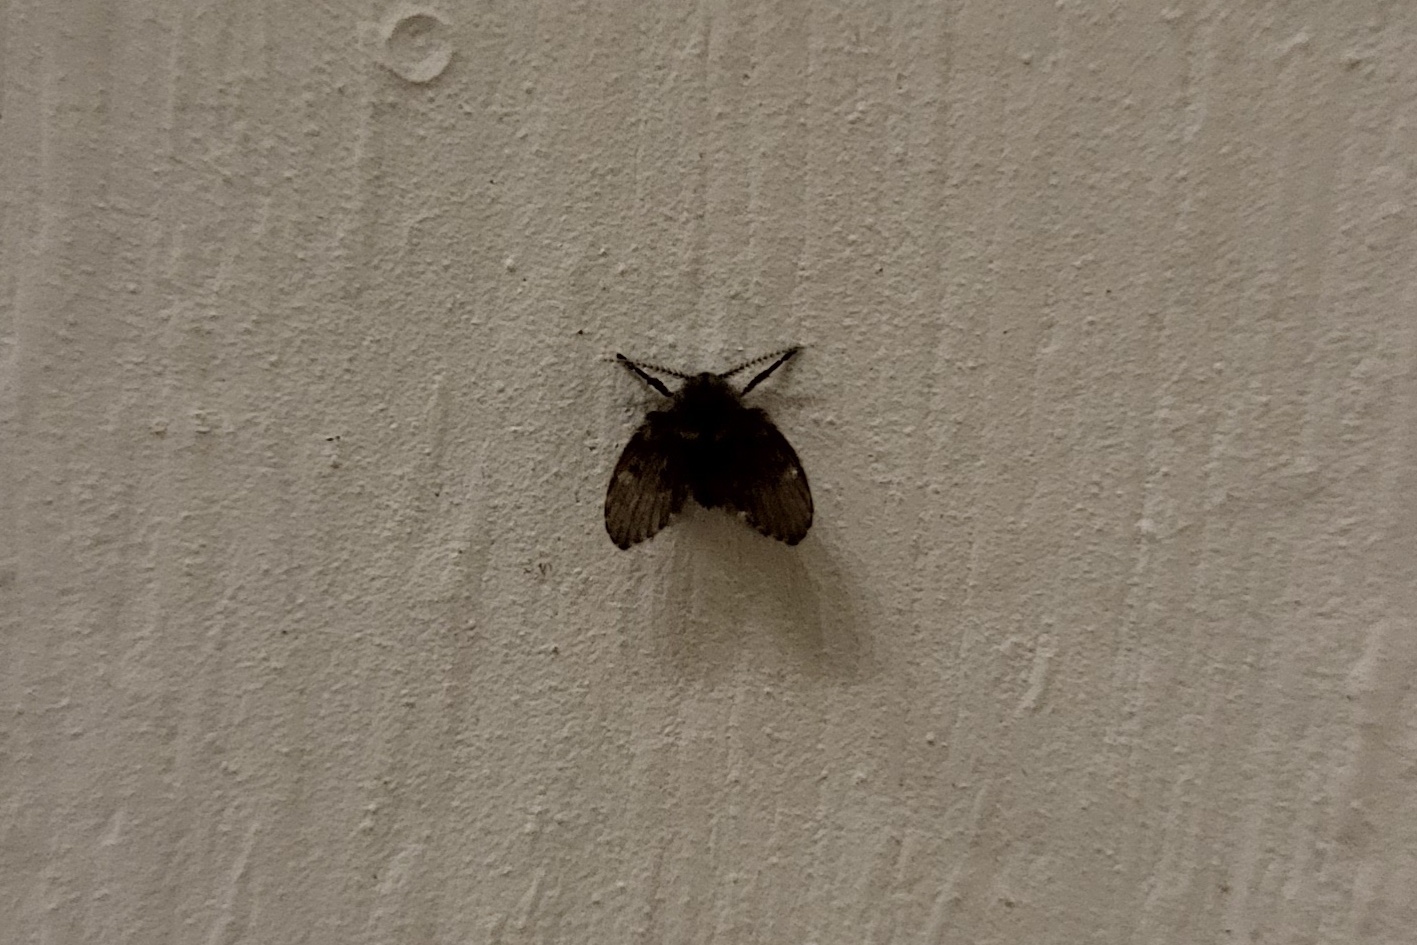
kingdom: Animalia
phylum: Arthropoda
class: Insecta
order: Diptera
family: Psychodidae
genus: Clogmia
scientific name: Clogmia albipunctatus
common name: White-spotted moth fly
